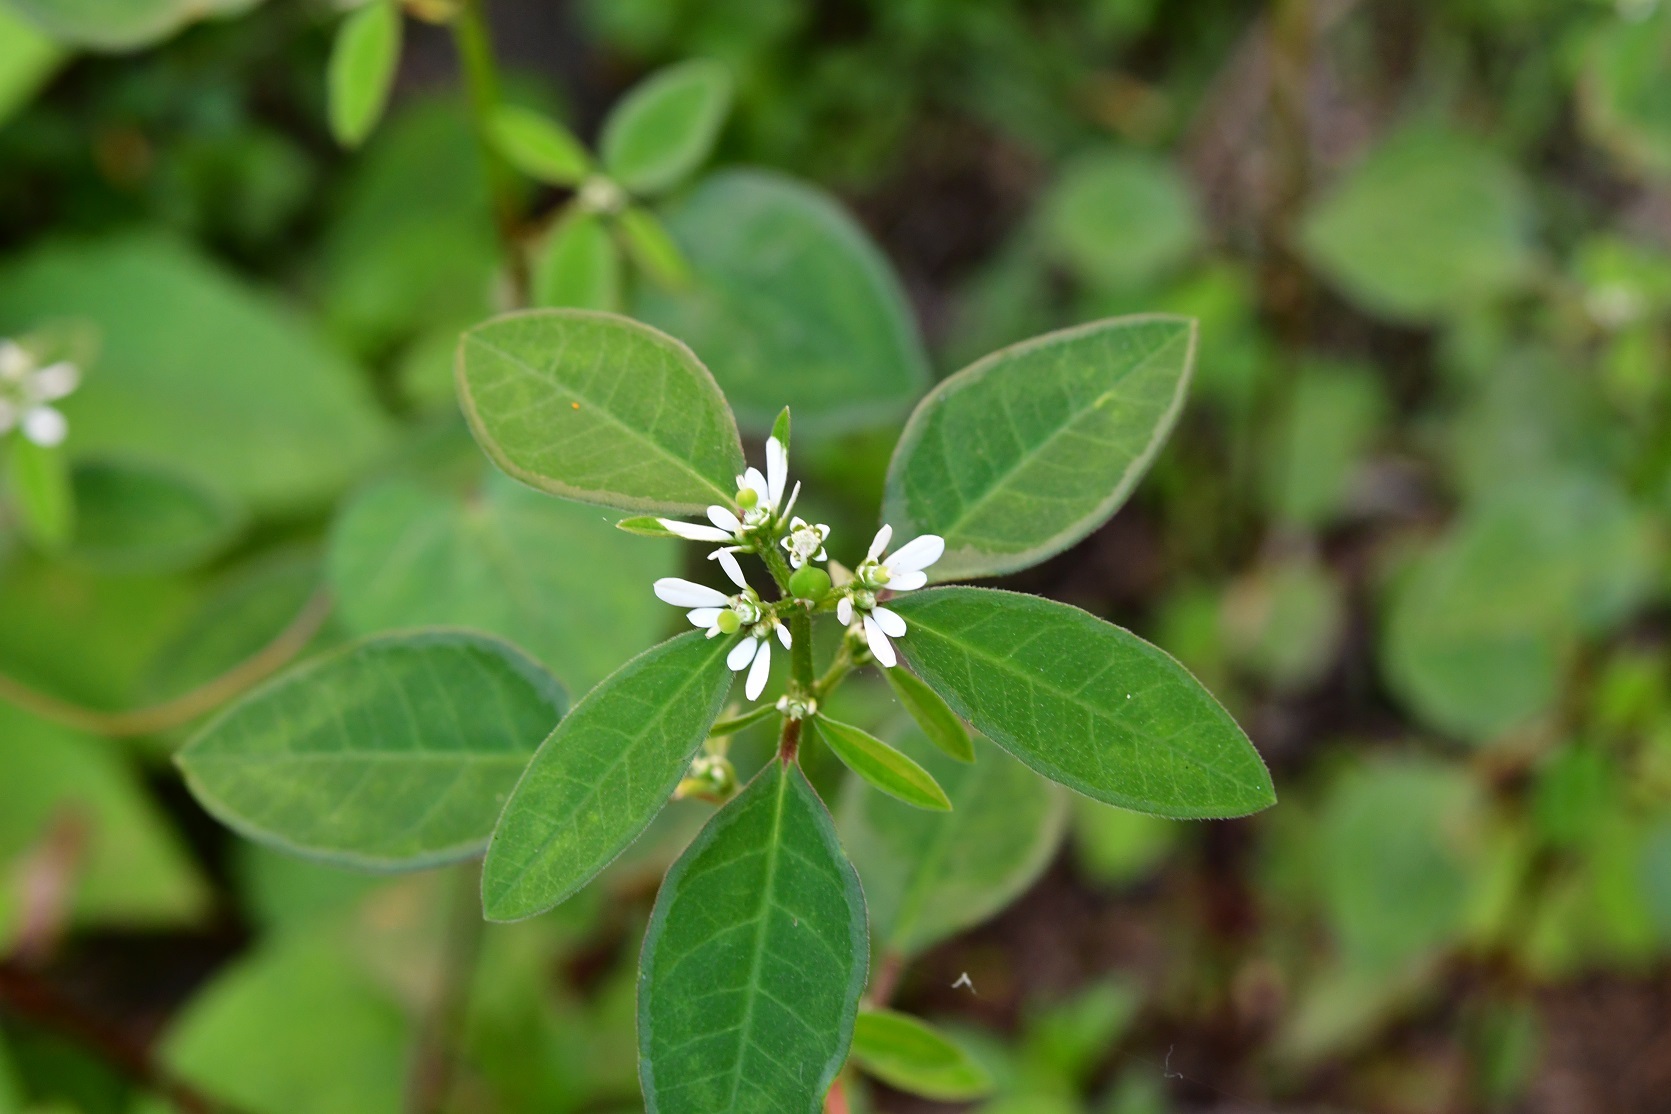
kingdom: Plantae
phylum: Tracheophyta
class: Magnoliopsida
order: Malpighiales
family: Euphorbiaceae
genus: Euphorbia
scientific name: Euphorbia graminea
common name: Grassleaf spurge
